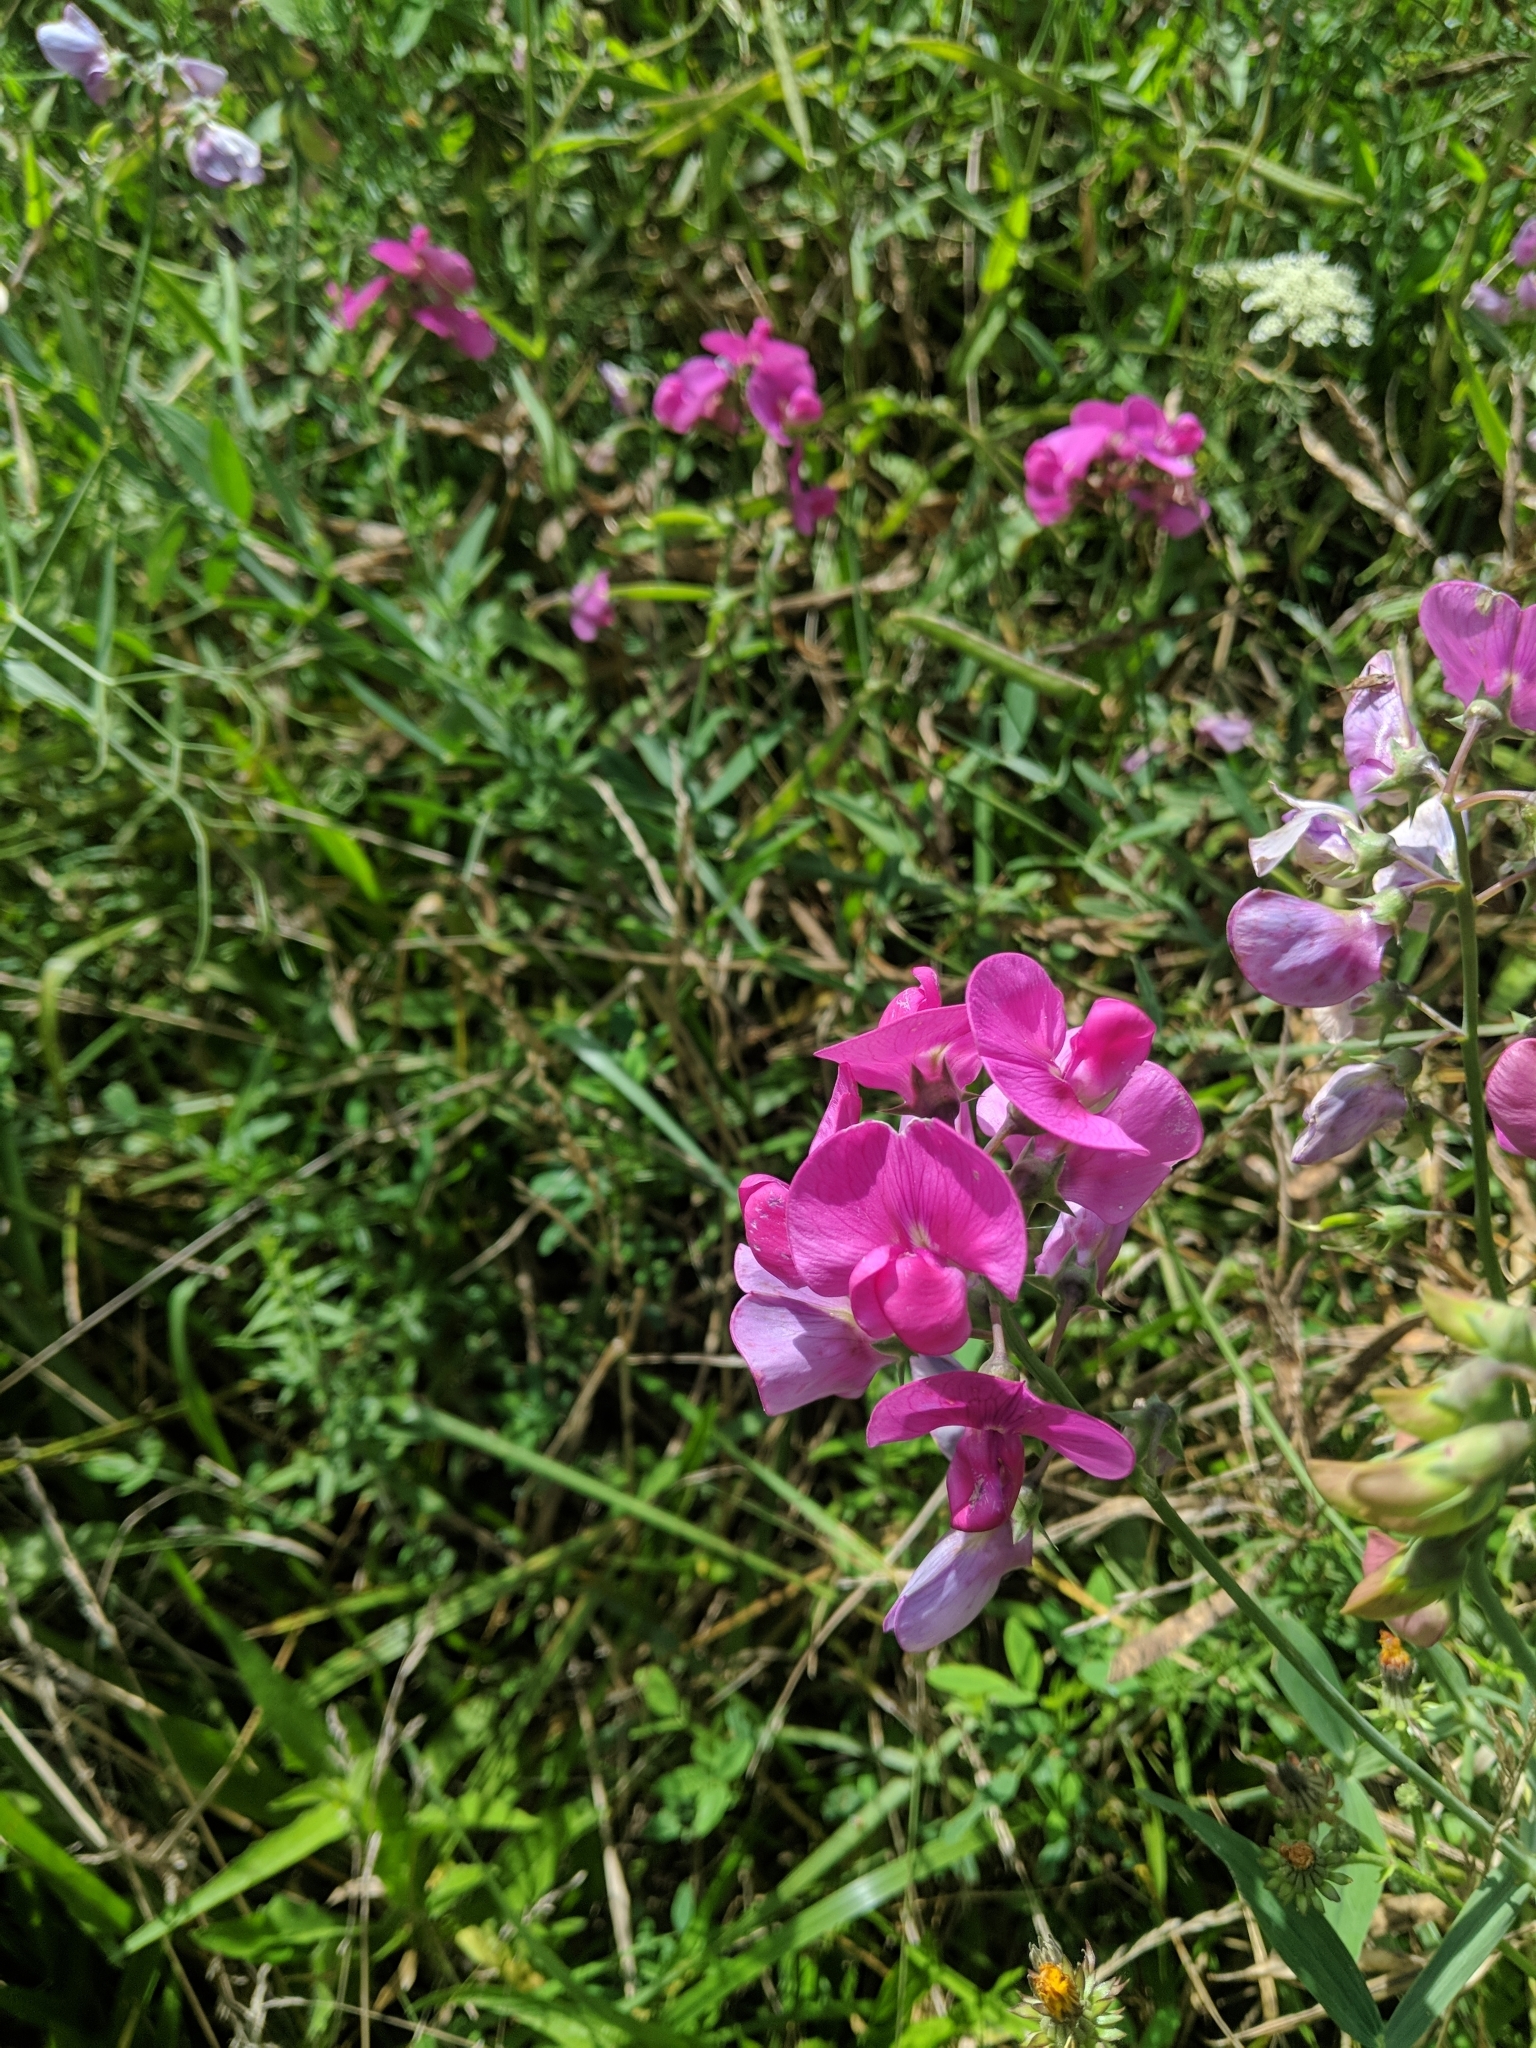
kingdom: Plantae
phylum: Tracheophyta
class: Magnoliopsida
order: Fabales
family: Fabaceae
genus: Lathyrus
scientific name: Lathyrus latifolius
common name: Perennial pea
